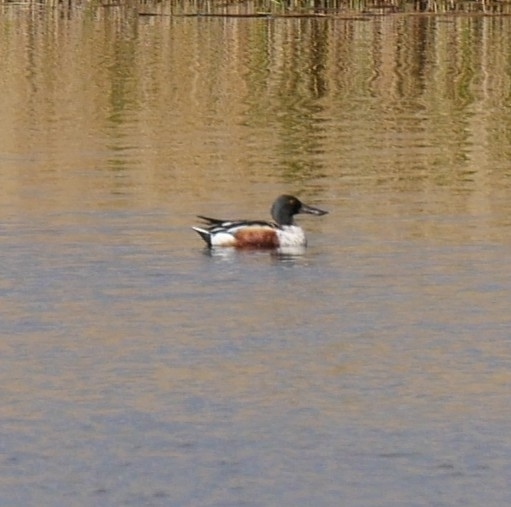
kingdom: Animalia
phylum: Chordata
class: Aves
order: Anseriformes
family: Anatidae
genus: Spatula
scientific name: Spatula clypeata
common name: Northern shoveler
